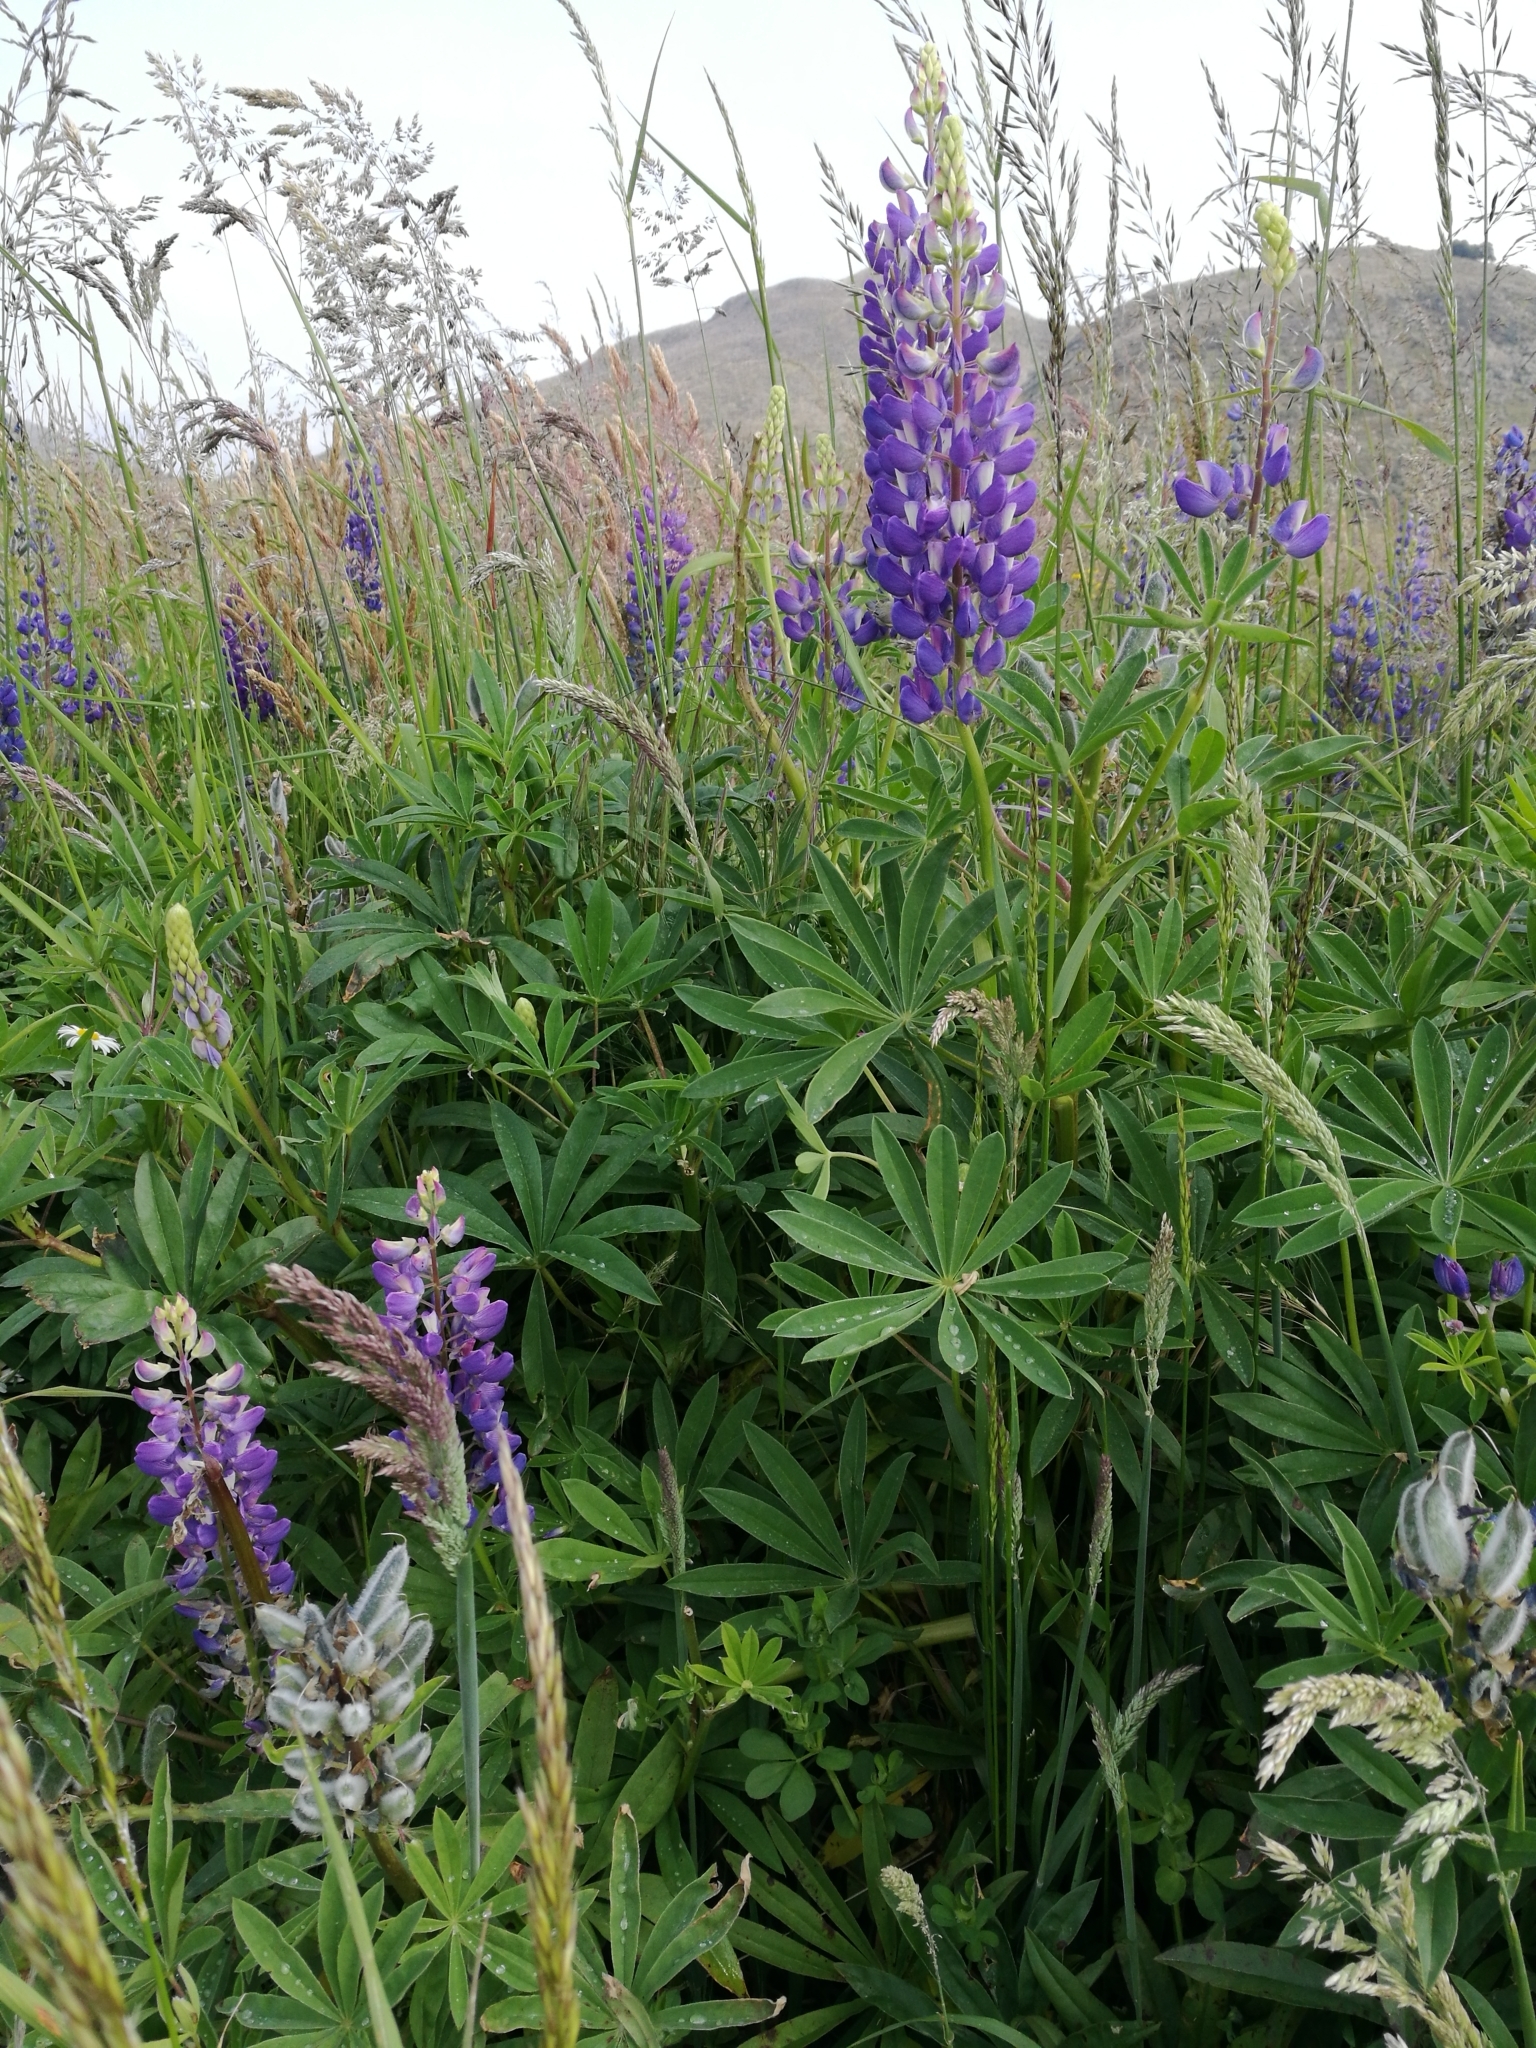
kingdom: Plantae
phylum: Tracheophyta
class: Magnoliopsida
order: Fabales
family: Fabaceae
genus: Lupinus
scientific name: Lupinus polyphyllus
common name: Garden lupin
